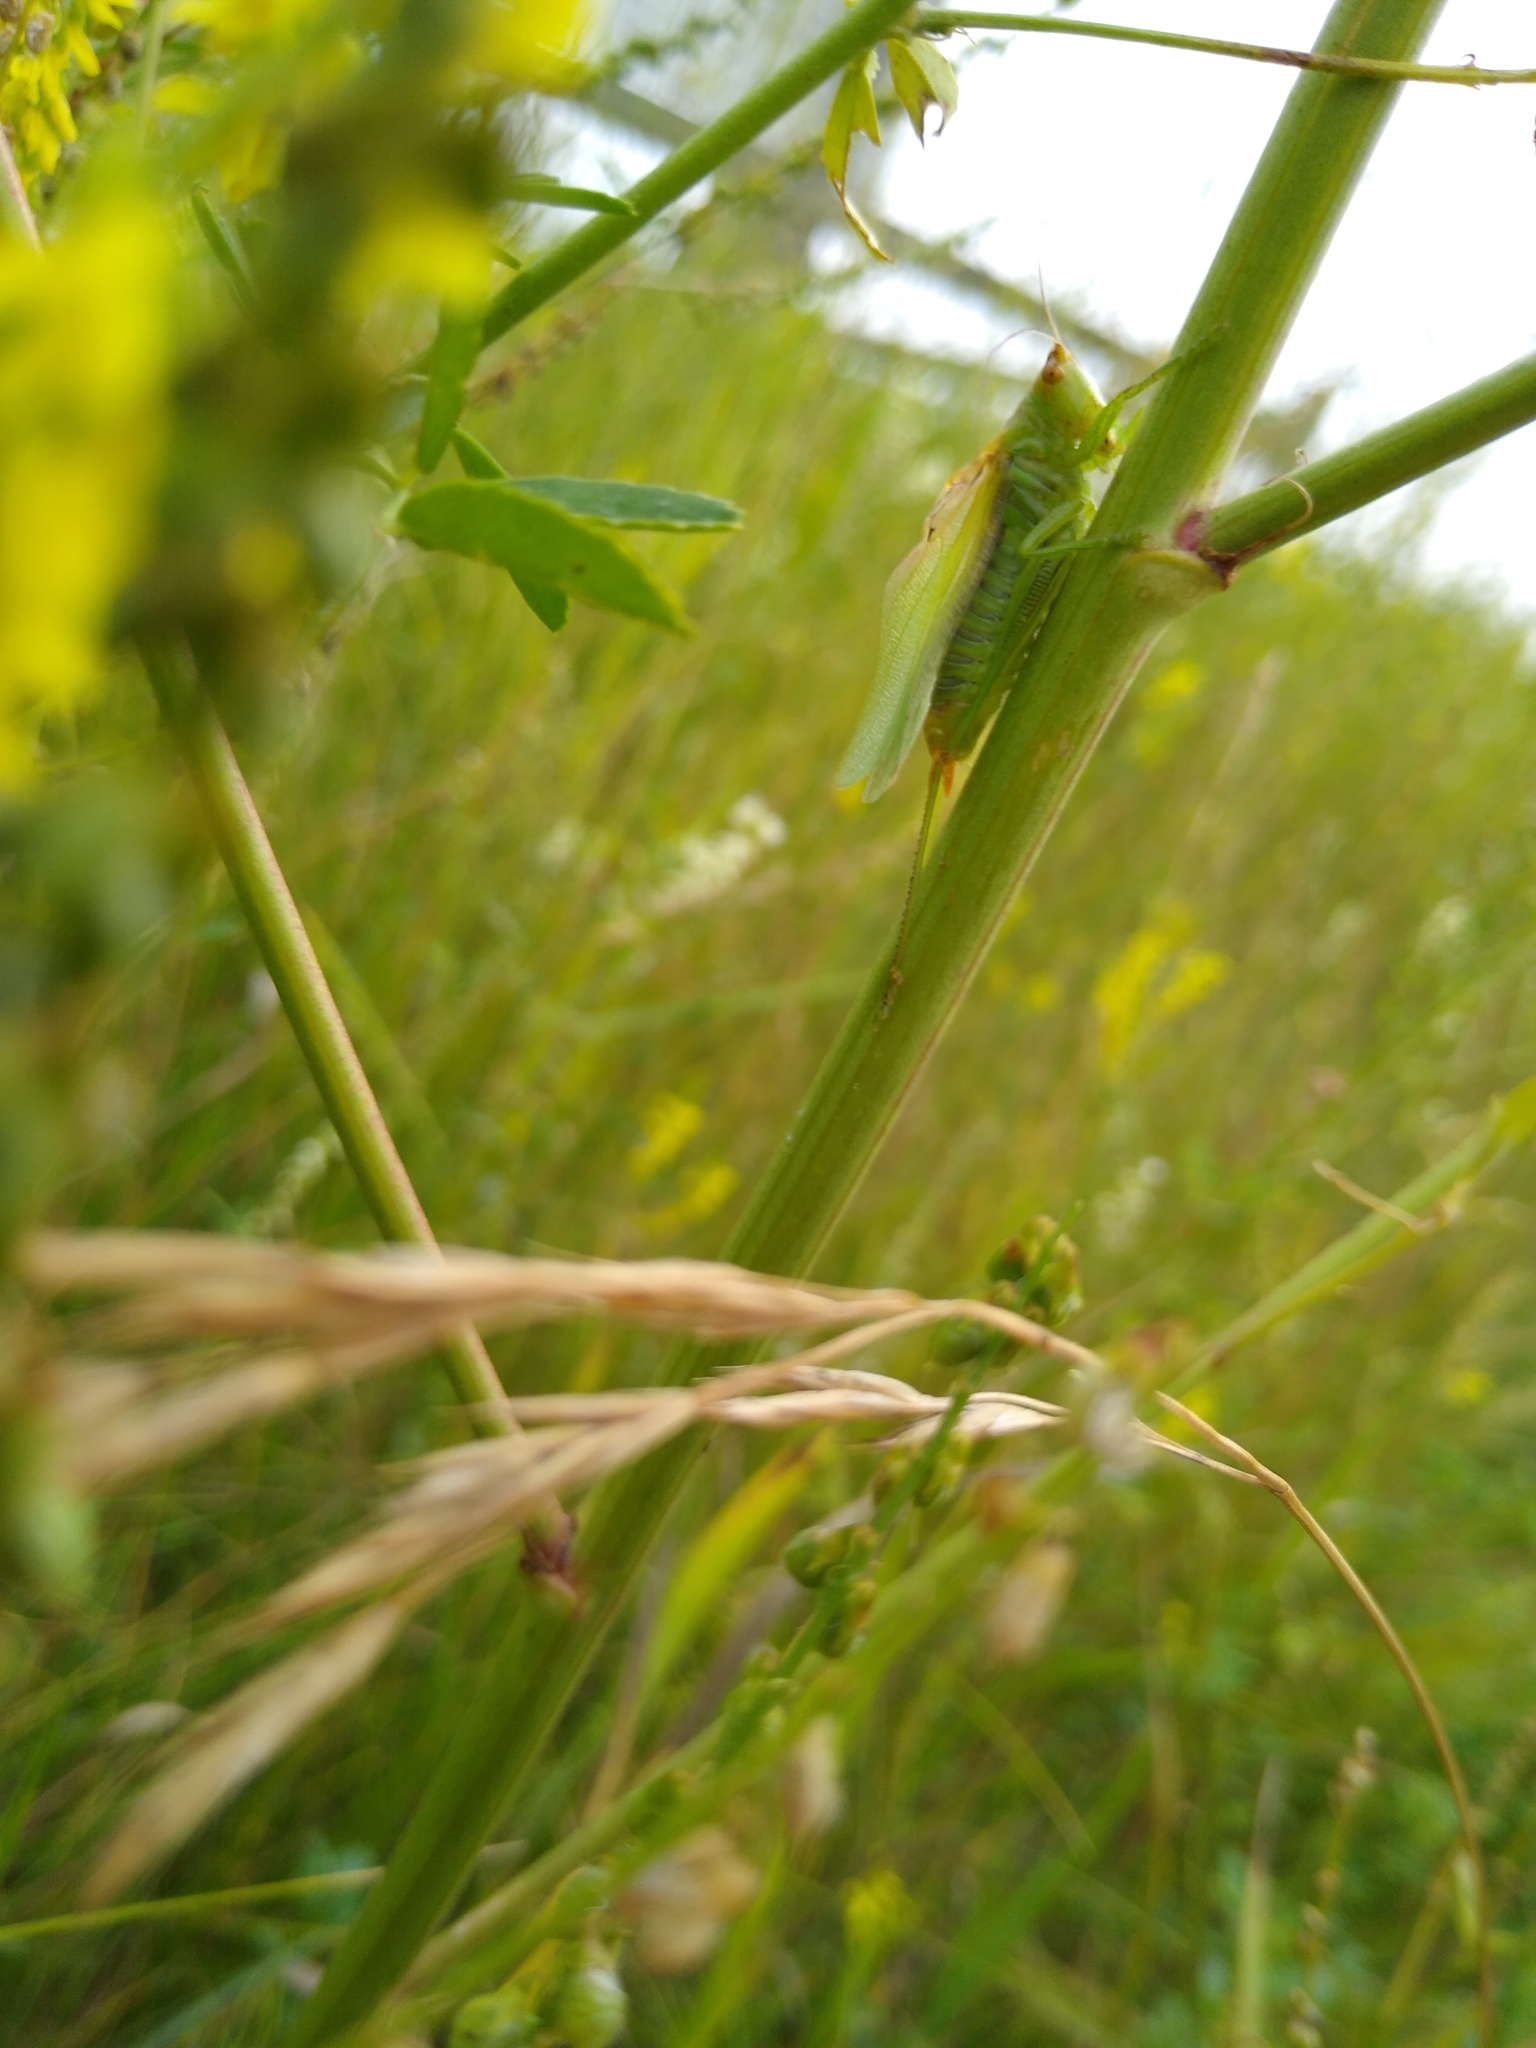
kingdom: Animalia
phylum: Arthropoda
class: Insecta
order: Orthoptera
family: Tettigoniidae
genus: Orchelimum
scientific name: Orchelimum gladiator
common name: Gladiator meadow katydid
